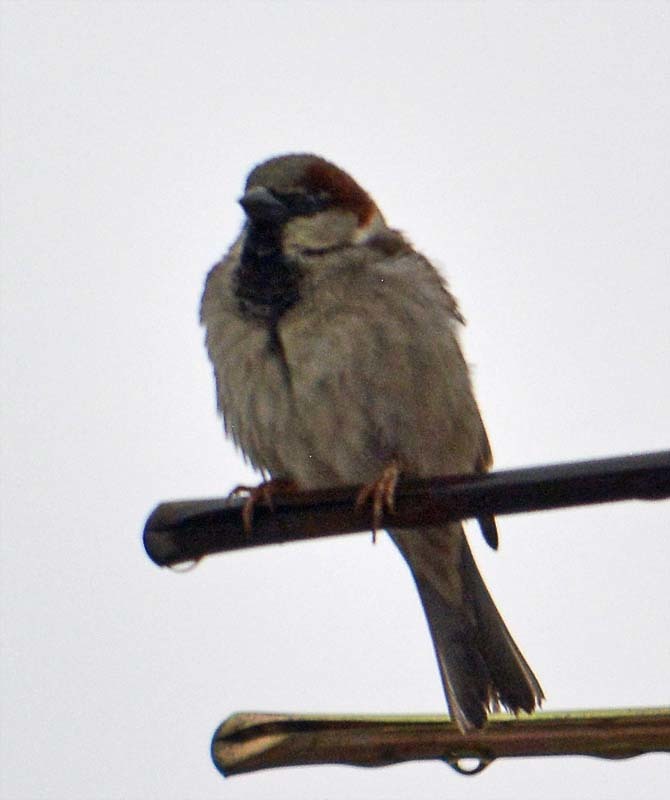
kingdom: Animalia
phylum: Chordata
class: Aves
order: Passeriformes
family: Passeridae
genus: Passer
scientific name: Passer domesticus
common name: House sparrow
